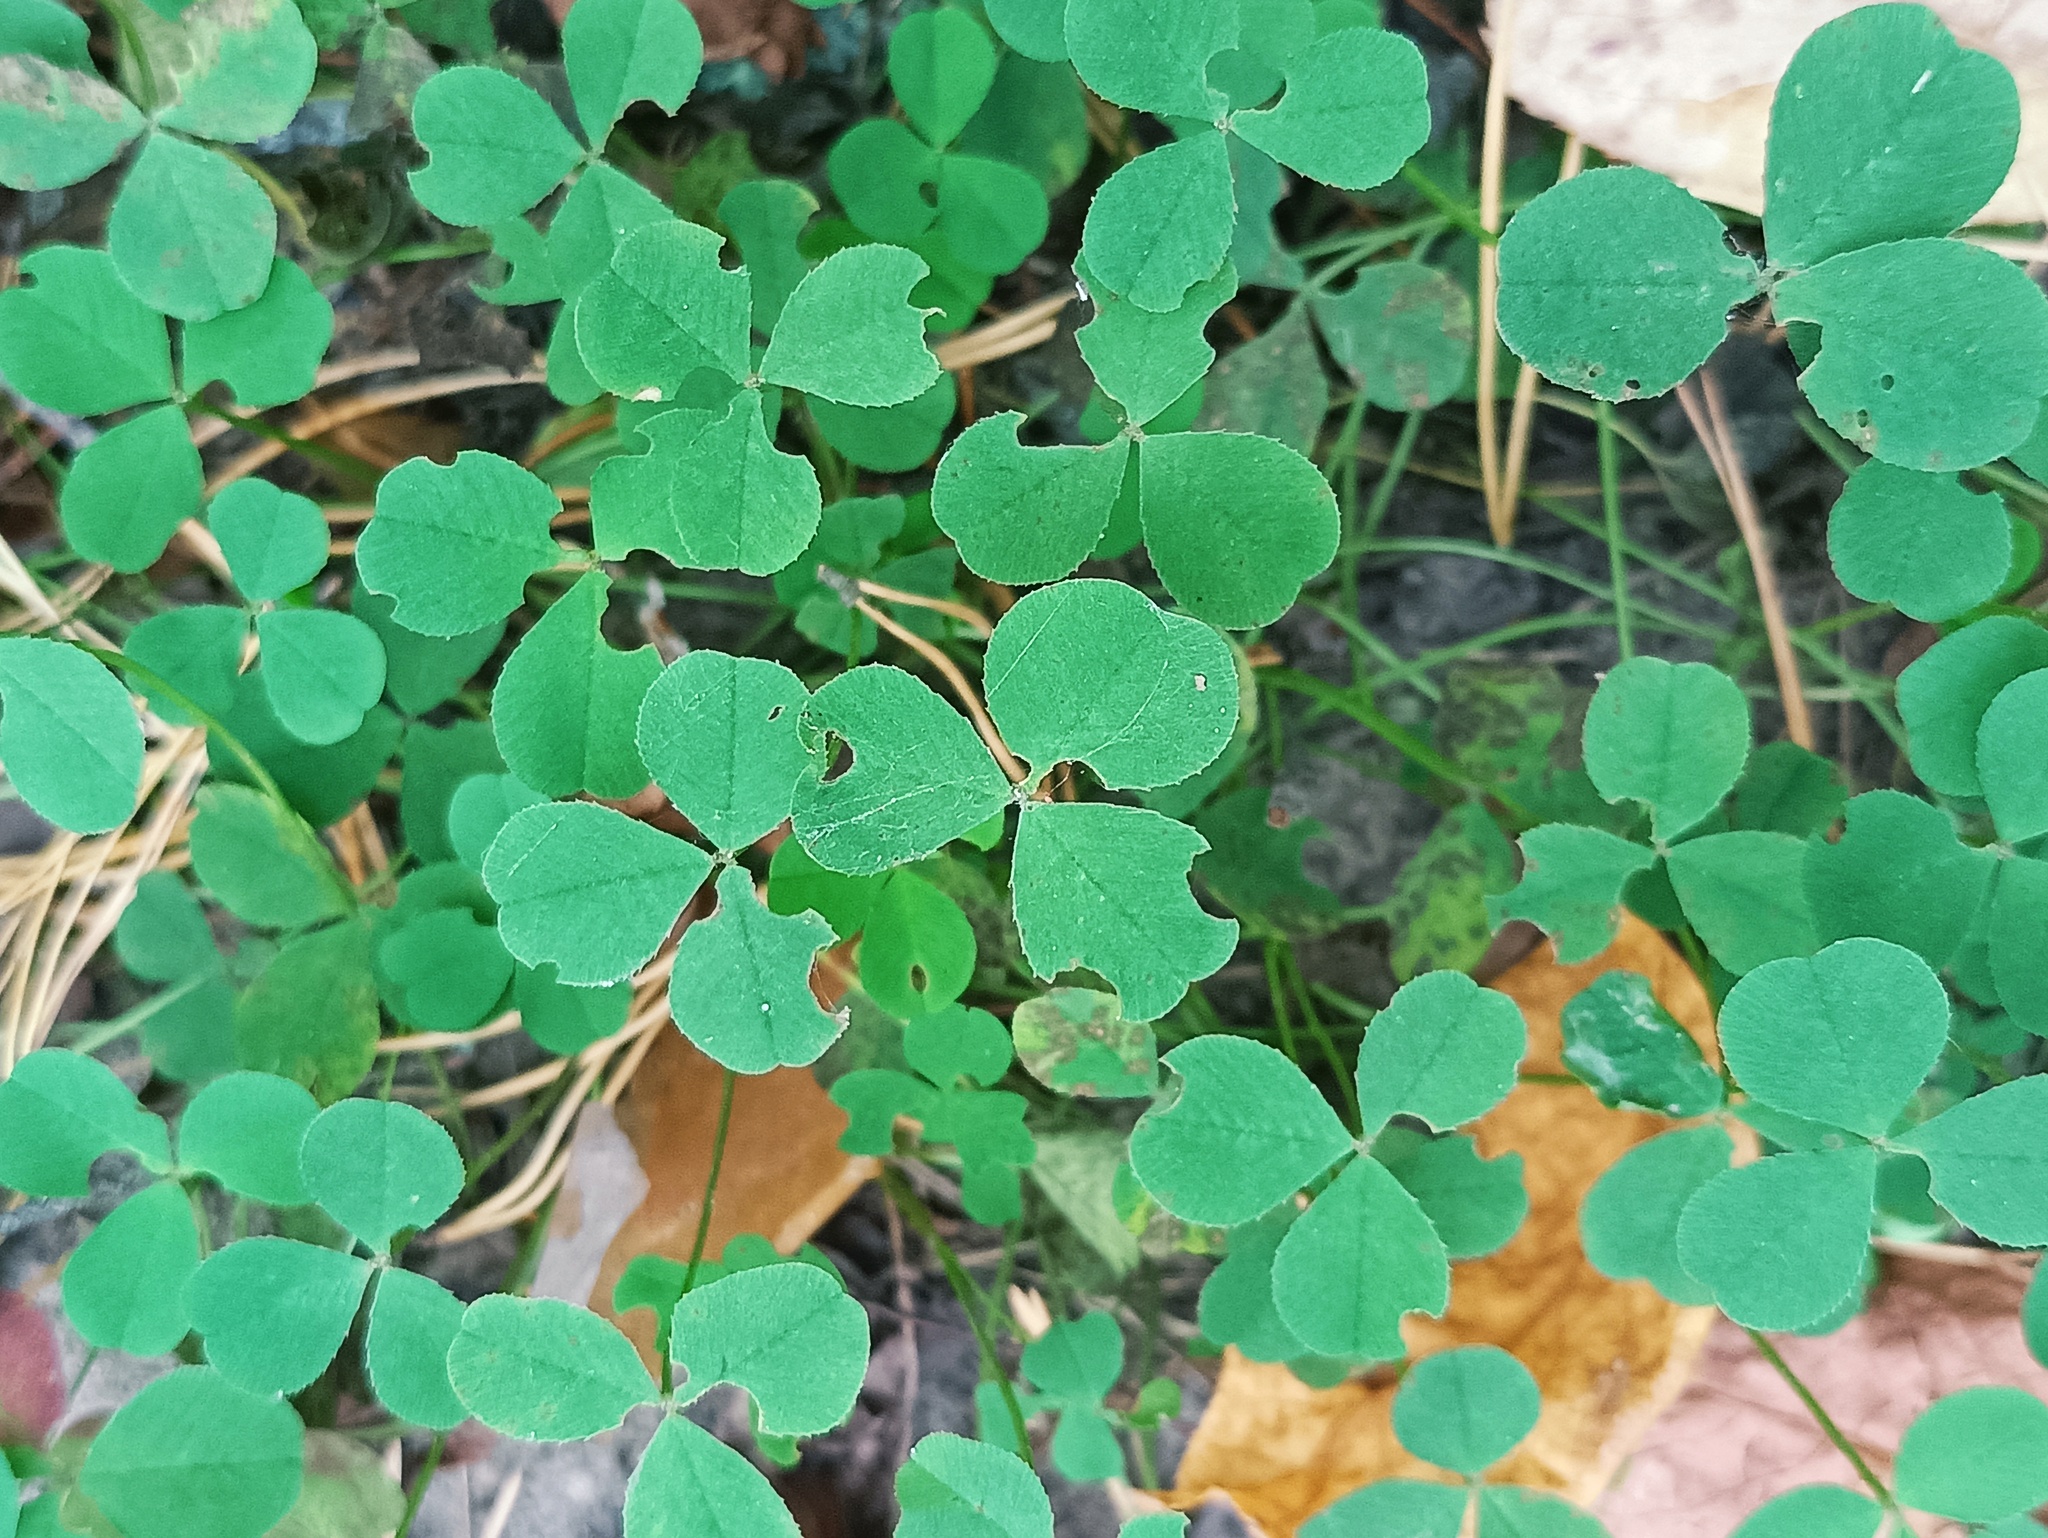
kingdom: Plantae
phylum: Tracheophyta
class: Magnoliopsida
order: Fabales
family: Fabaceae
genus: Trifolium
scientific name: Trifolium repens
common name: White clover
